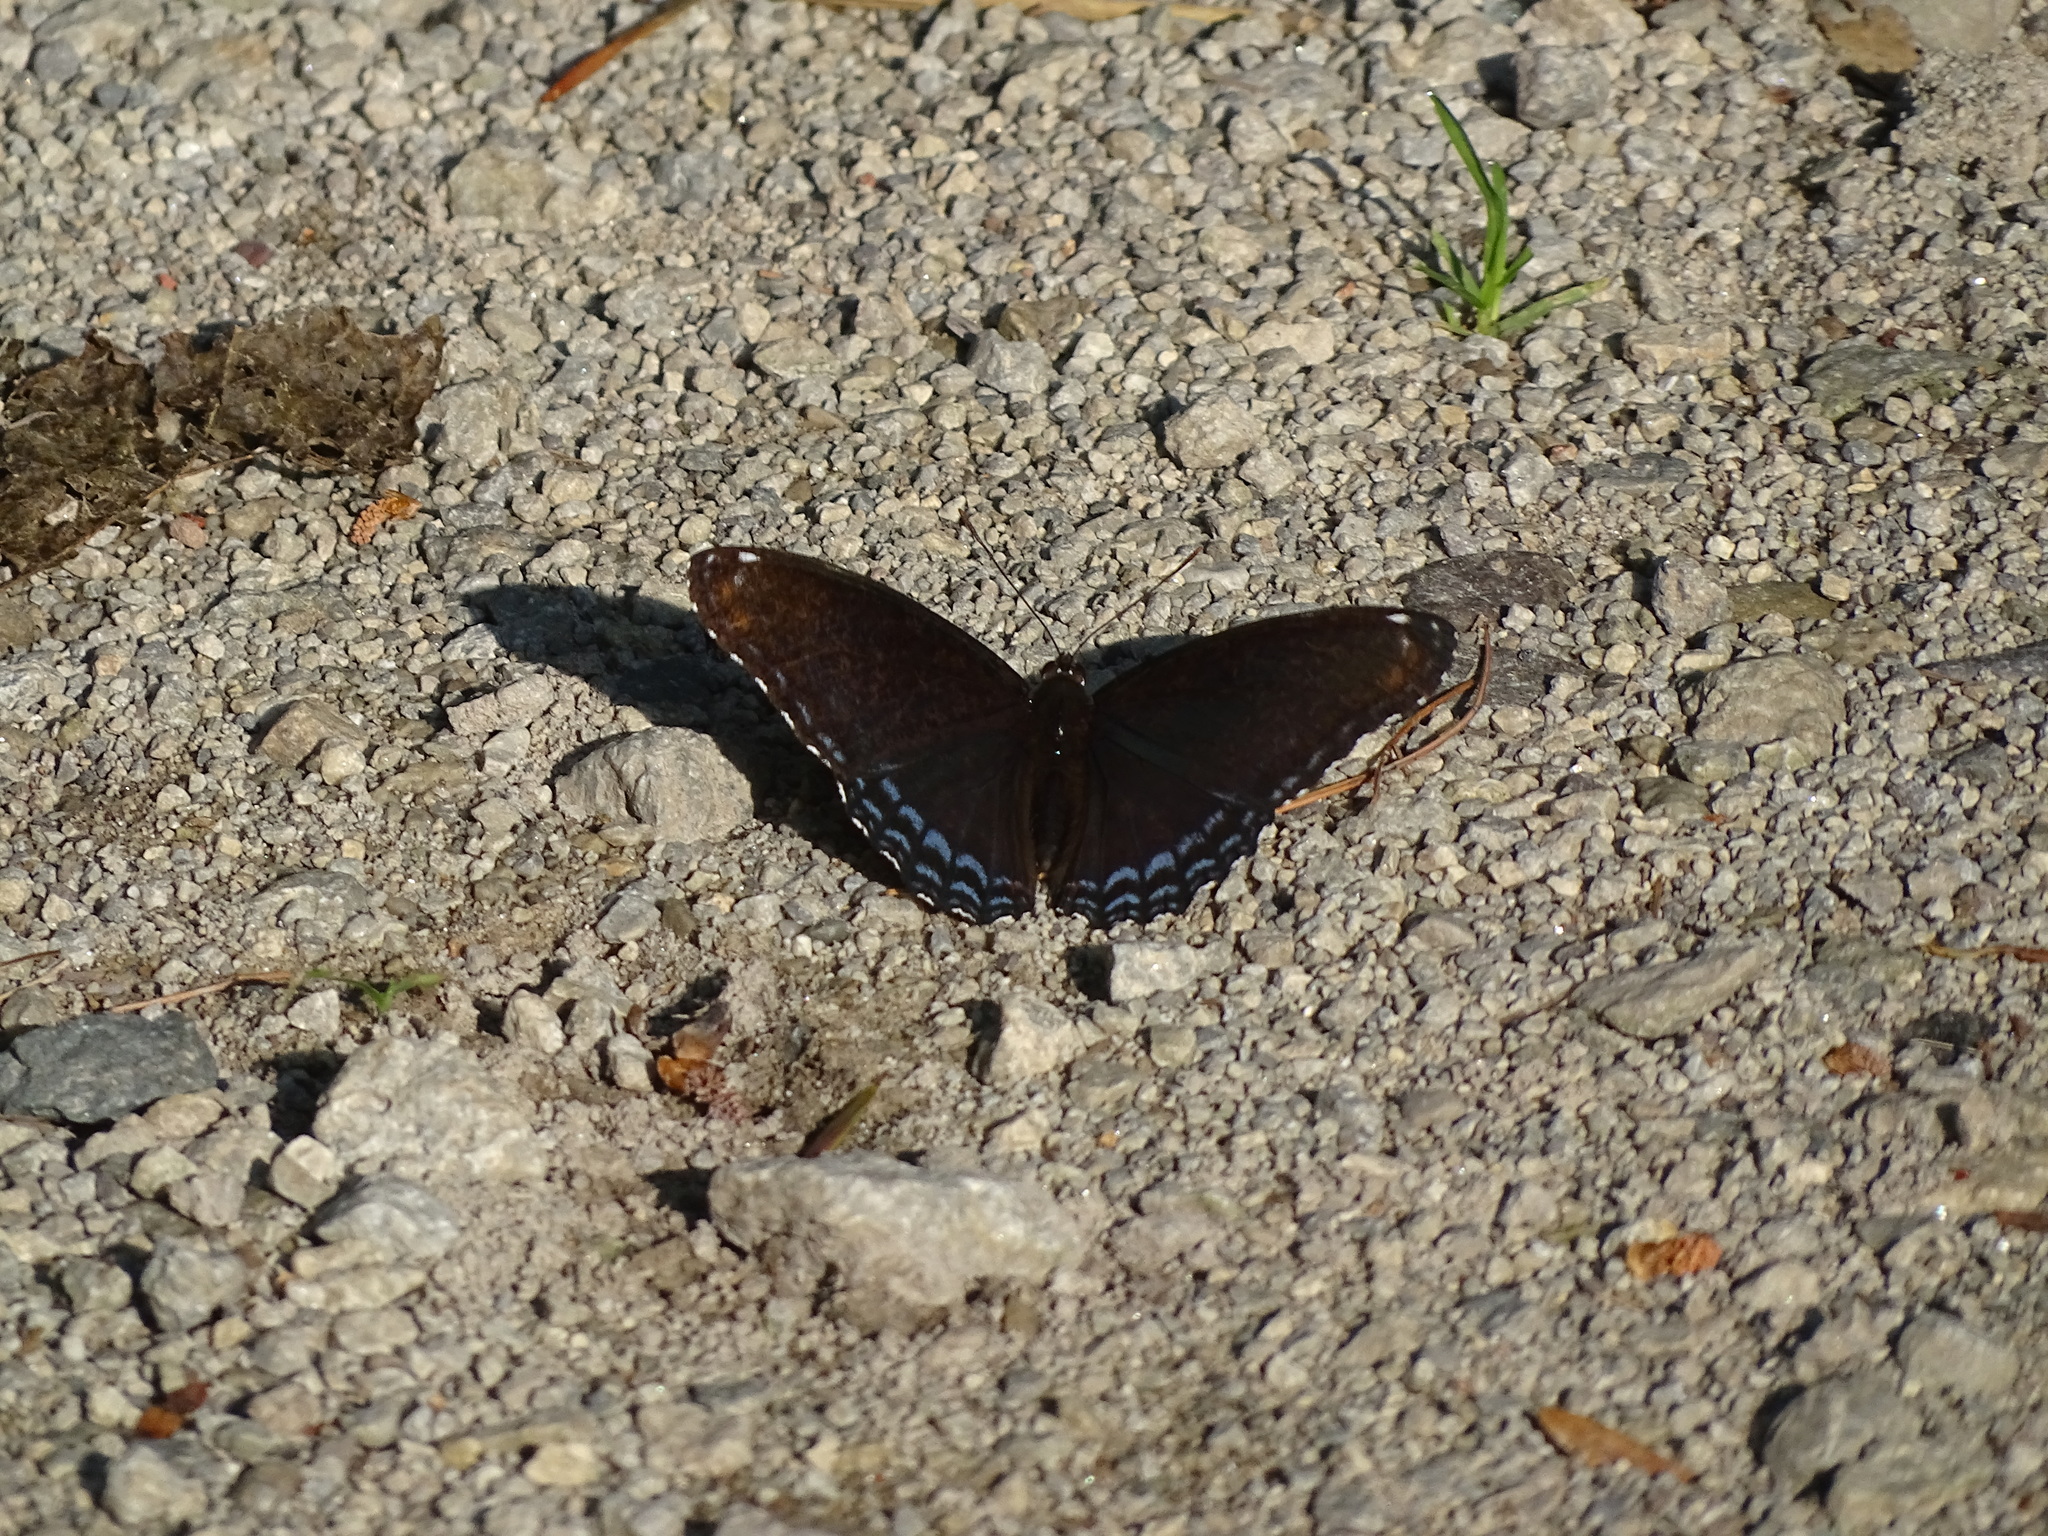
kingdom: Animalia
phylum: Arthropoda
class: Insecta
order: Lepidoptera
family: Nymphalidae
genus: Limenitis
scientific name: Limenitis astyanax
